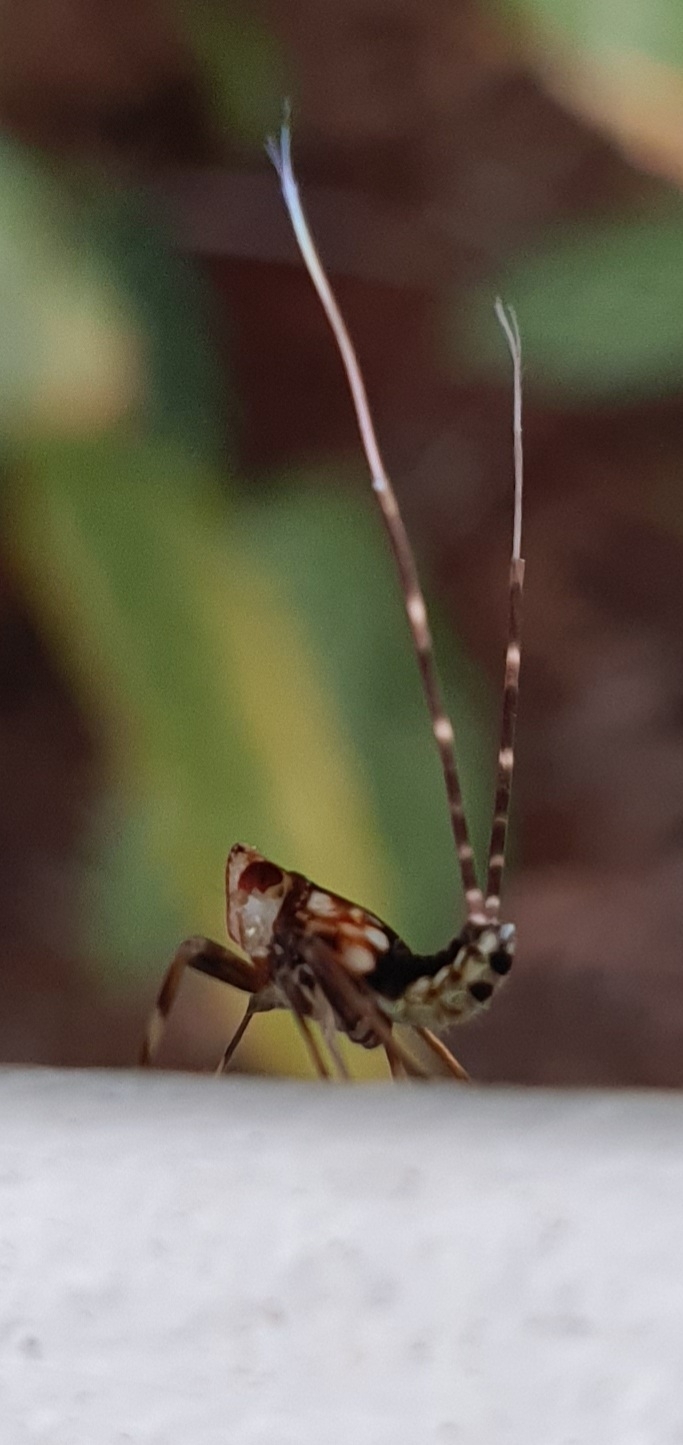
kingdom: Animalia
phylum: Arthropoda
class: Insecta
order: Hemiptera
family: Lophopidae
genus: Magia
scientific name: Magia subocellata
